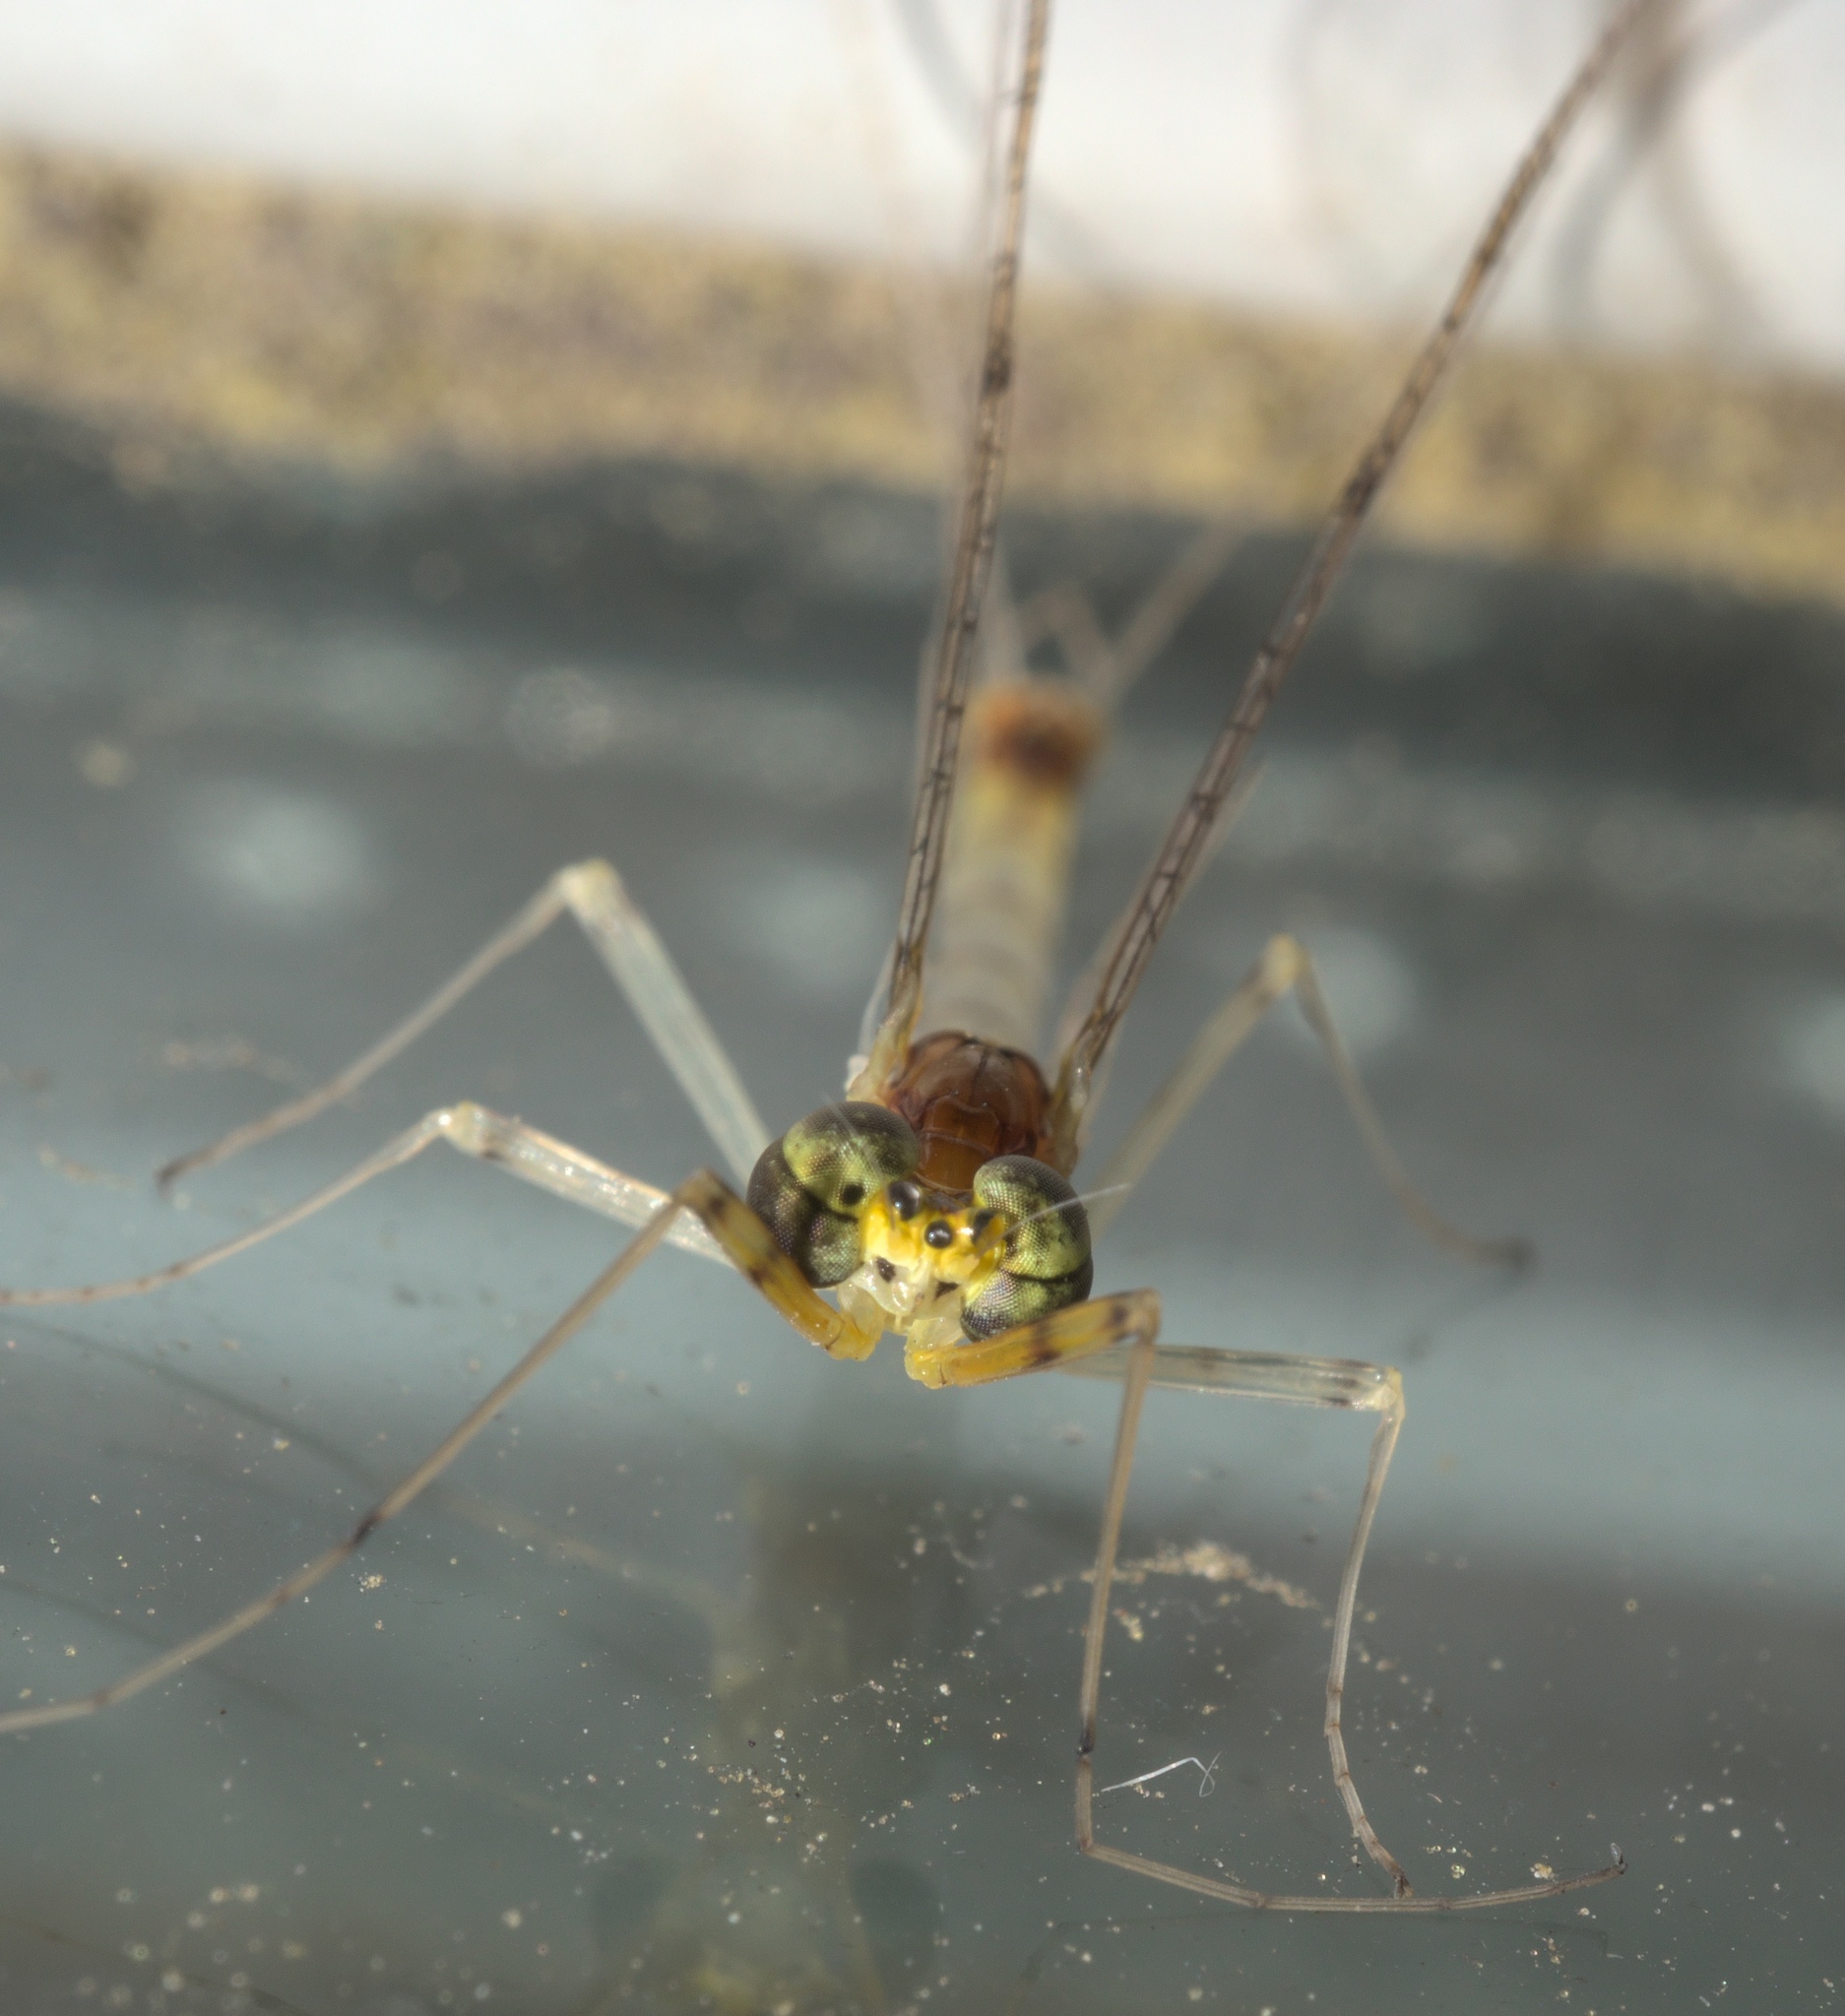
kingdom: Animalia
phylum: Arthropoda
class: Insecta
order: Ephemeroptera
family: Heptageniidae
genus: Stenacron
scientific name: Stenacron interpunctatum
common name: Orange cahill
